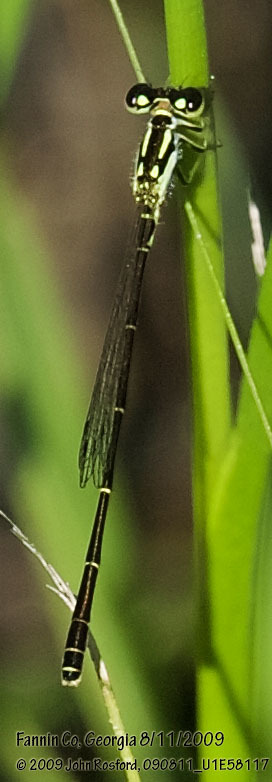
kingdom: Animalia
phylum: Arthropoda
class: Insecta
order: Odonata
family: Coenagrionidae
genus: Ischnura
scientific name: Ischnura posita
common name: Fragile forktail
